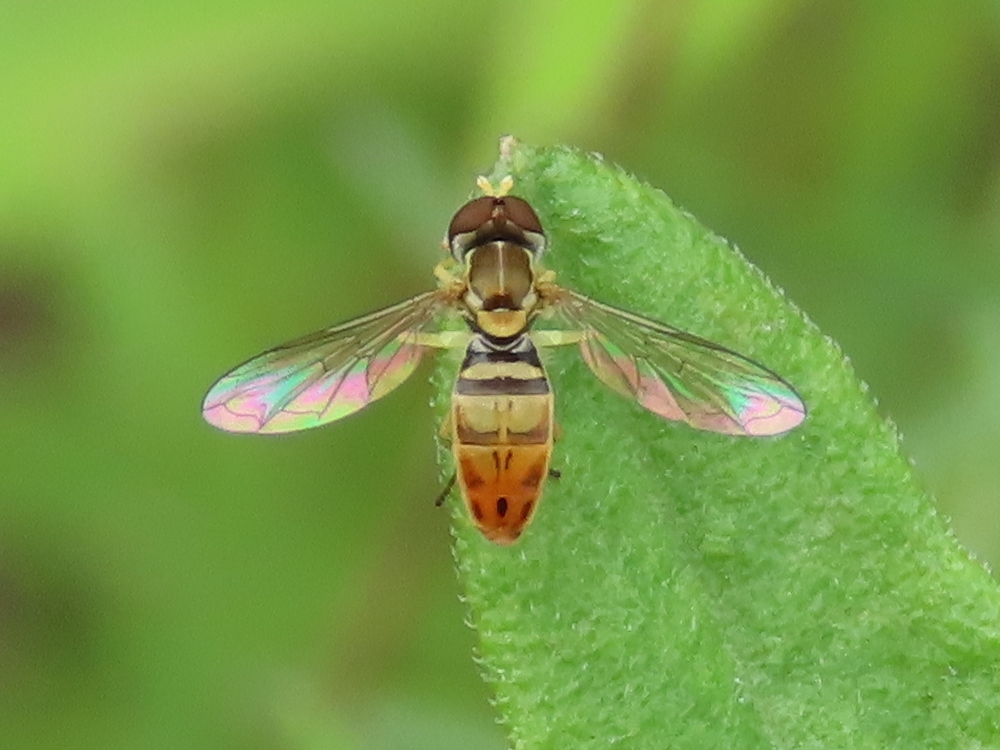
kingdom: Animalia
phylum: Arthropoda
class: Insecta
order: Diptera
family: Syrphidae
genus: Toxomerus
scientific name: Toxomerus marginatus
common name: Syrphid fly
